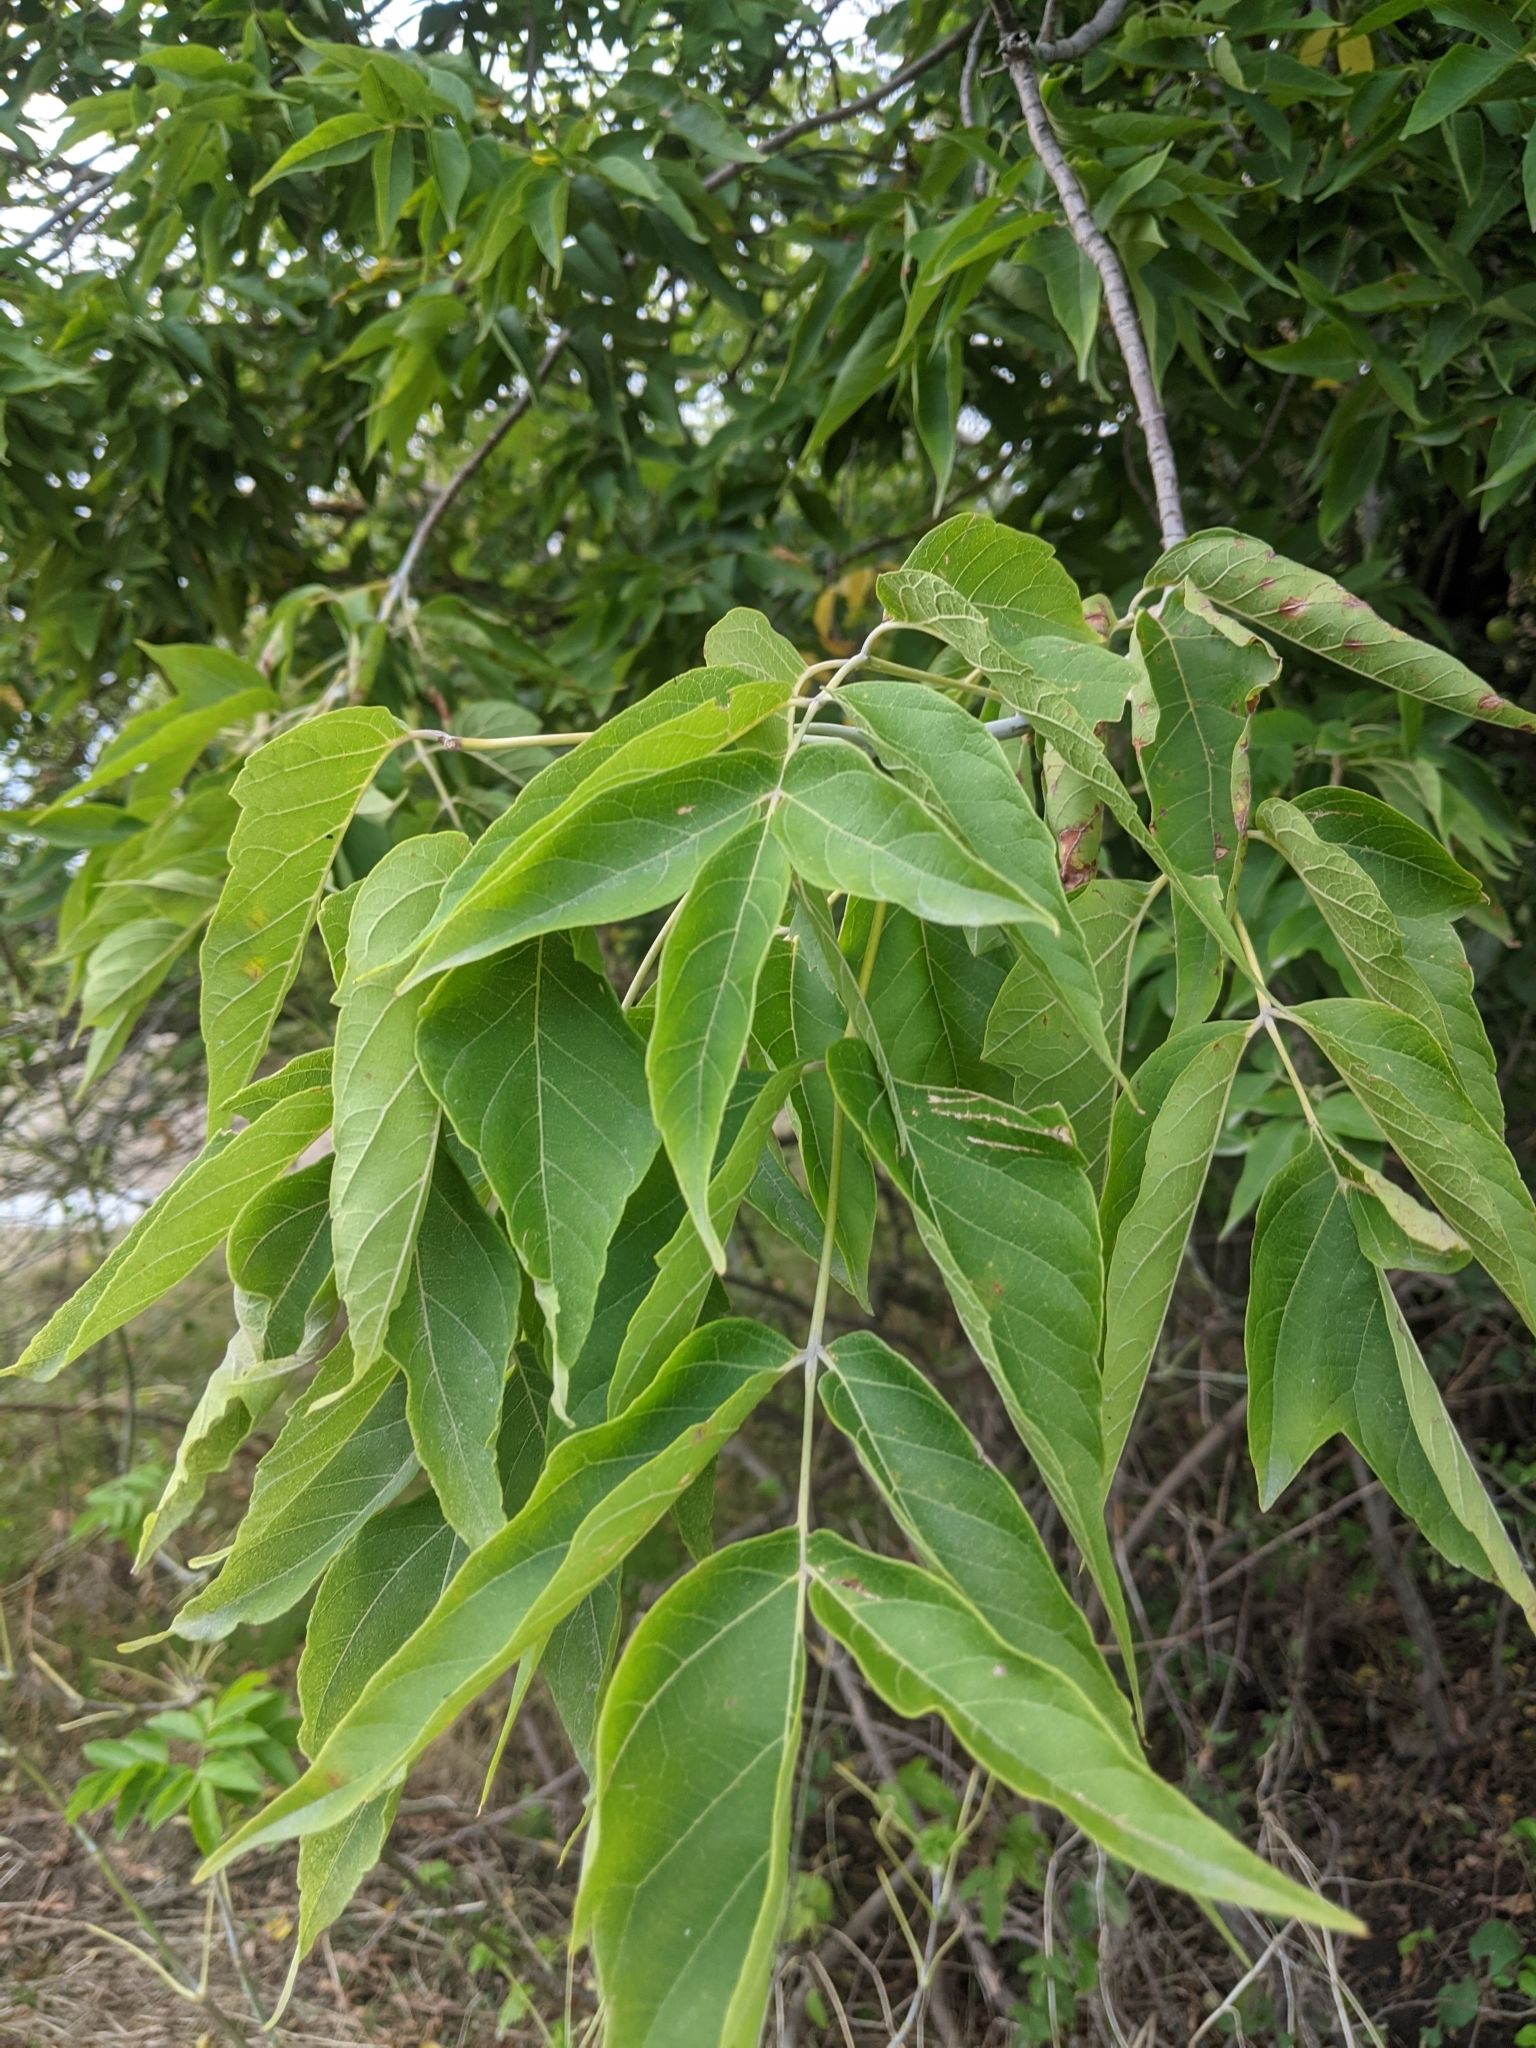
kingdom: Plantae
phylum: Tracheophyta
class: Magnoliopsida
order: Sapindales
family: Sapindaceae
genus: Acer
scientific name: Acer negundo
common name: Ashleaf maple
